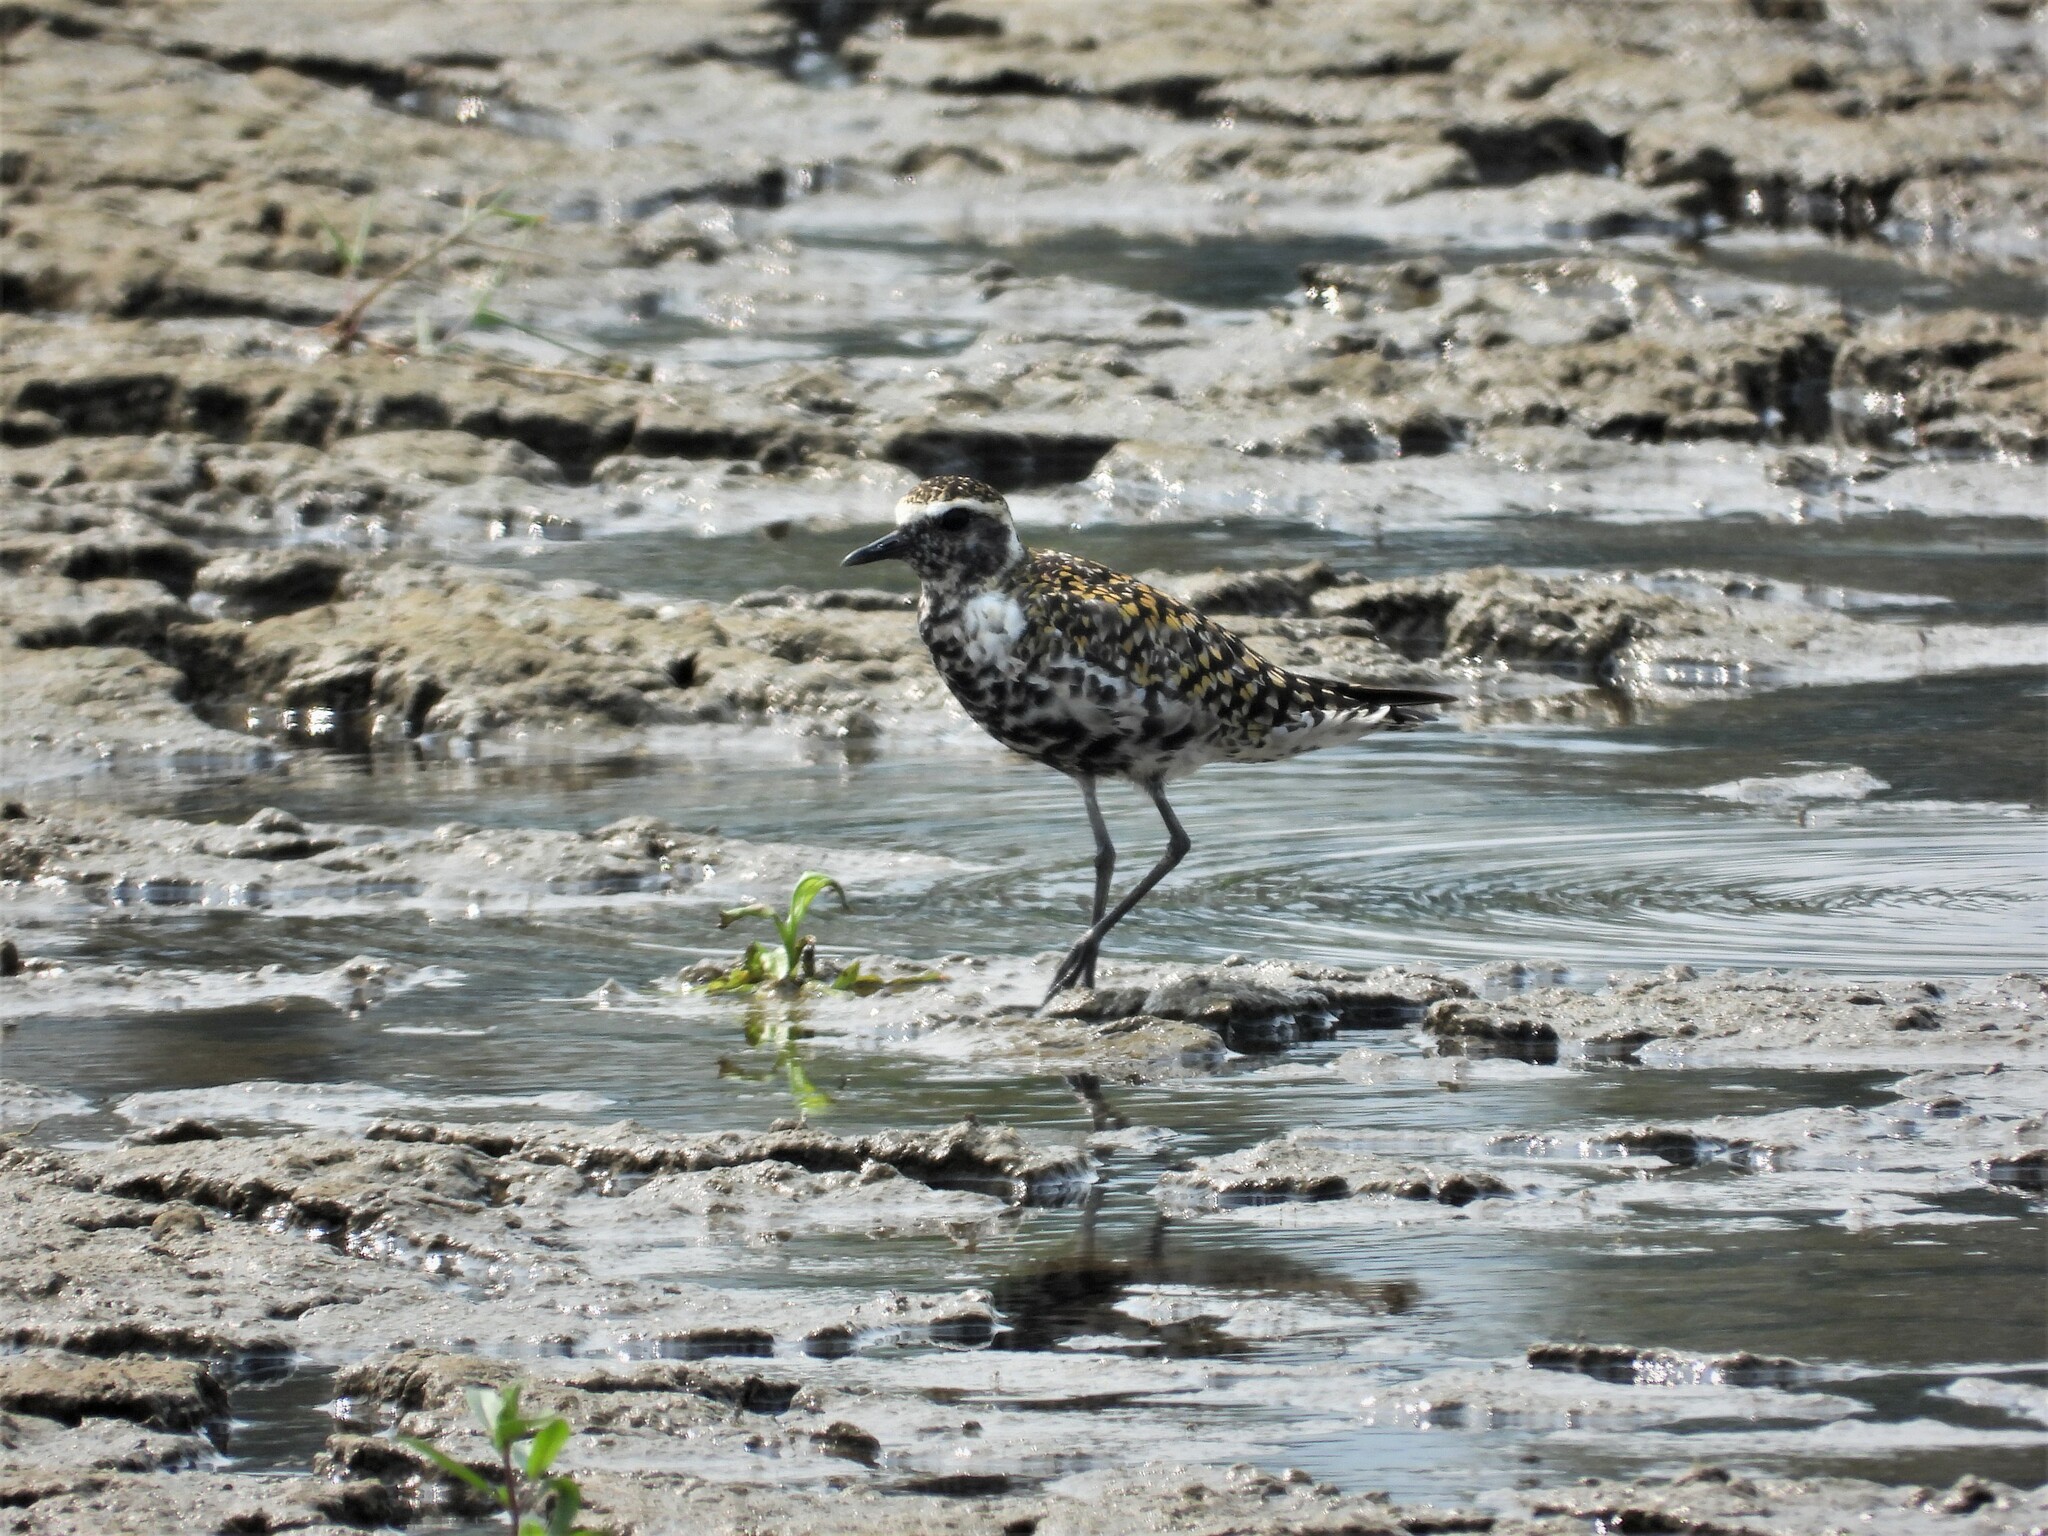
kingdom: Animalia
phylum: Chordata
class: Aves
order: Charadriiformes
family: Charadriidae
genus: Pluvialis
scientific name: Pluvialis fulva
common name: Pacific golden plover
